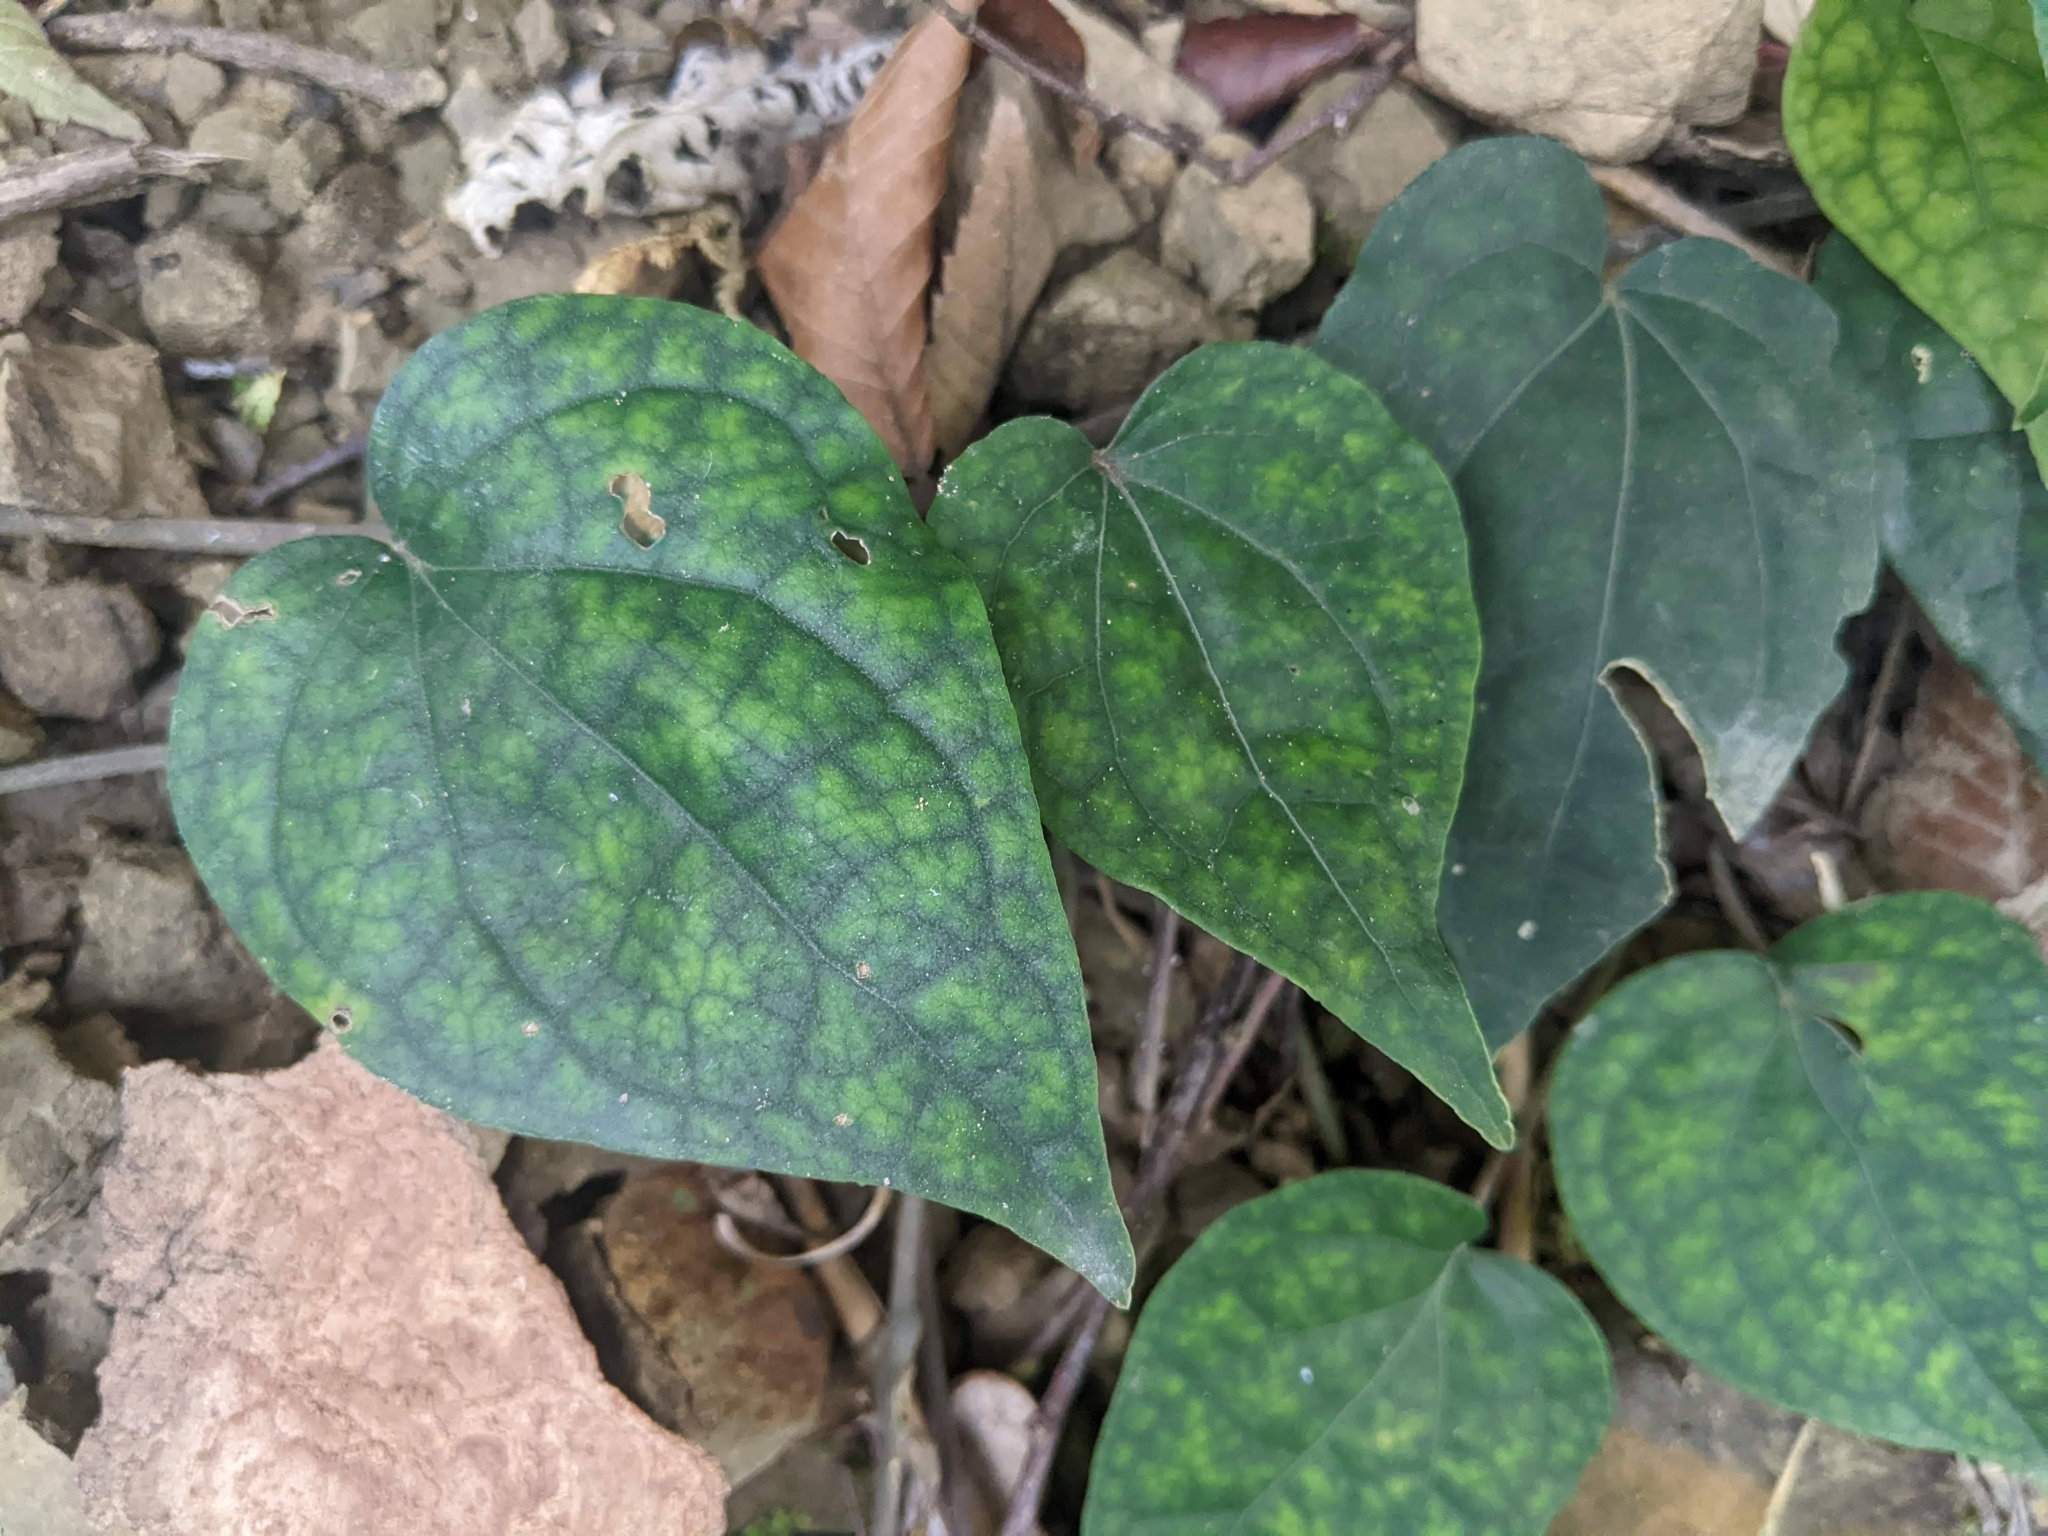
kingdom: Plantae
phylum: Tracheophyta
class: Magnoliopsida
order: Piperales
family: Piperaceae
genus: Piper
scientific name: Piper kadsura
